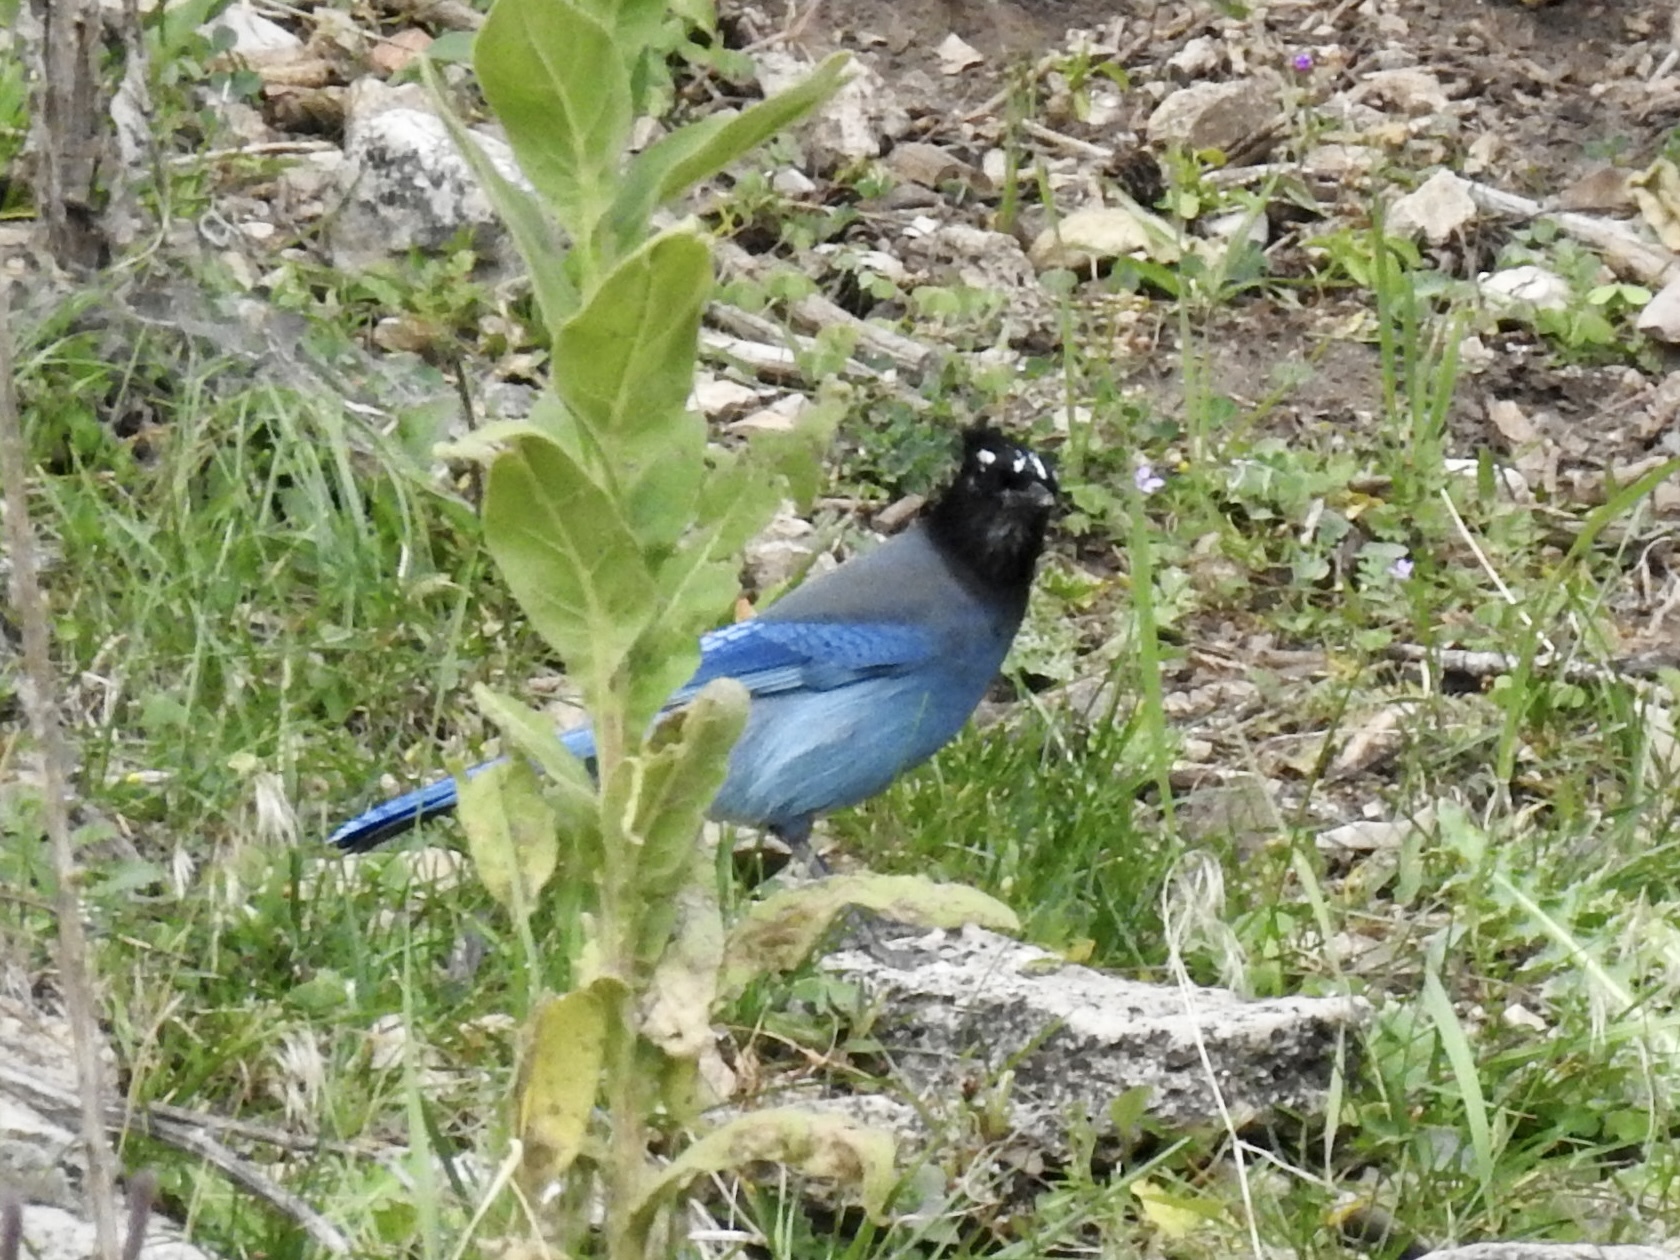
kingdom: Animalia
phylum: Chordata
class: Aves
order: Passeriformes
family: Corvidae
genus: Cyanocitta
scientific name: Cyanocitta stelleri
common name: Steller's jay
